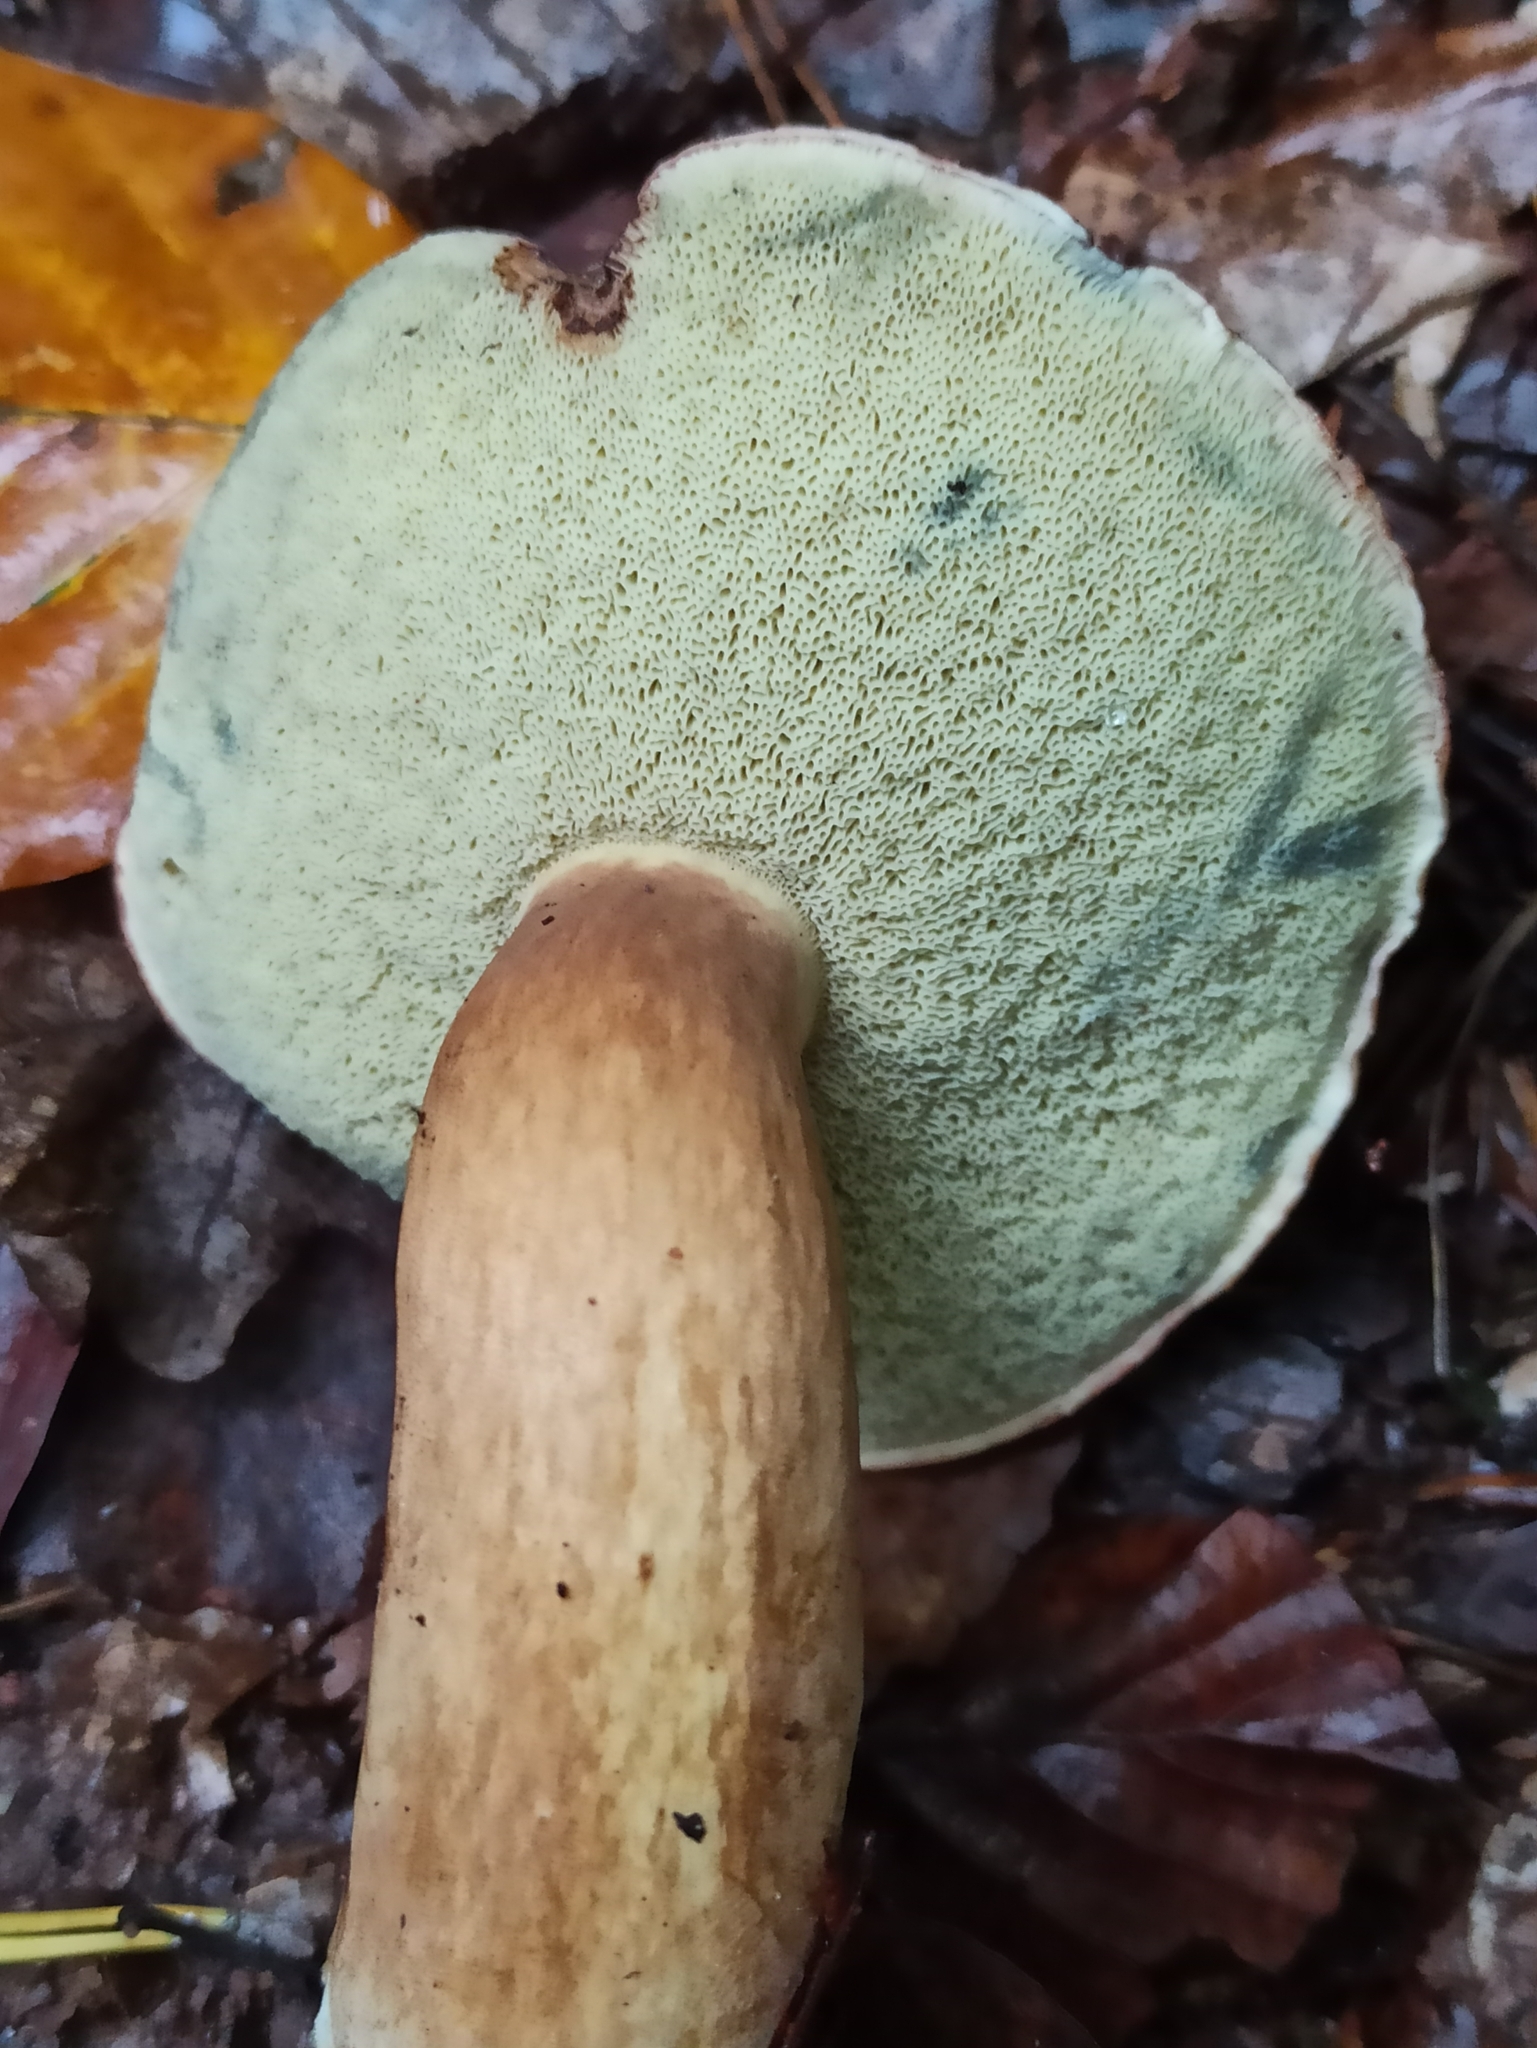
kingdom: Fungi
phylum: Basidiomycota
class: Agaricomycetes
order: Boletales
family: Boletaceae
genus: Imleria
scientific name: Imleria badia
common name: Bay bolete
